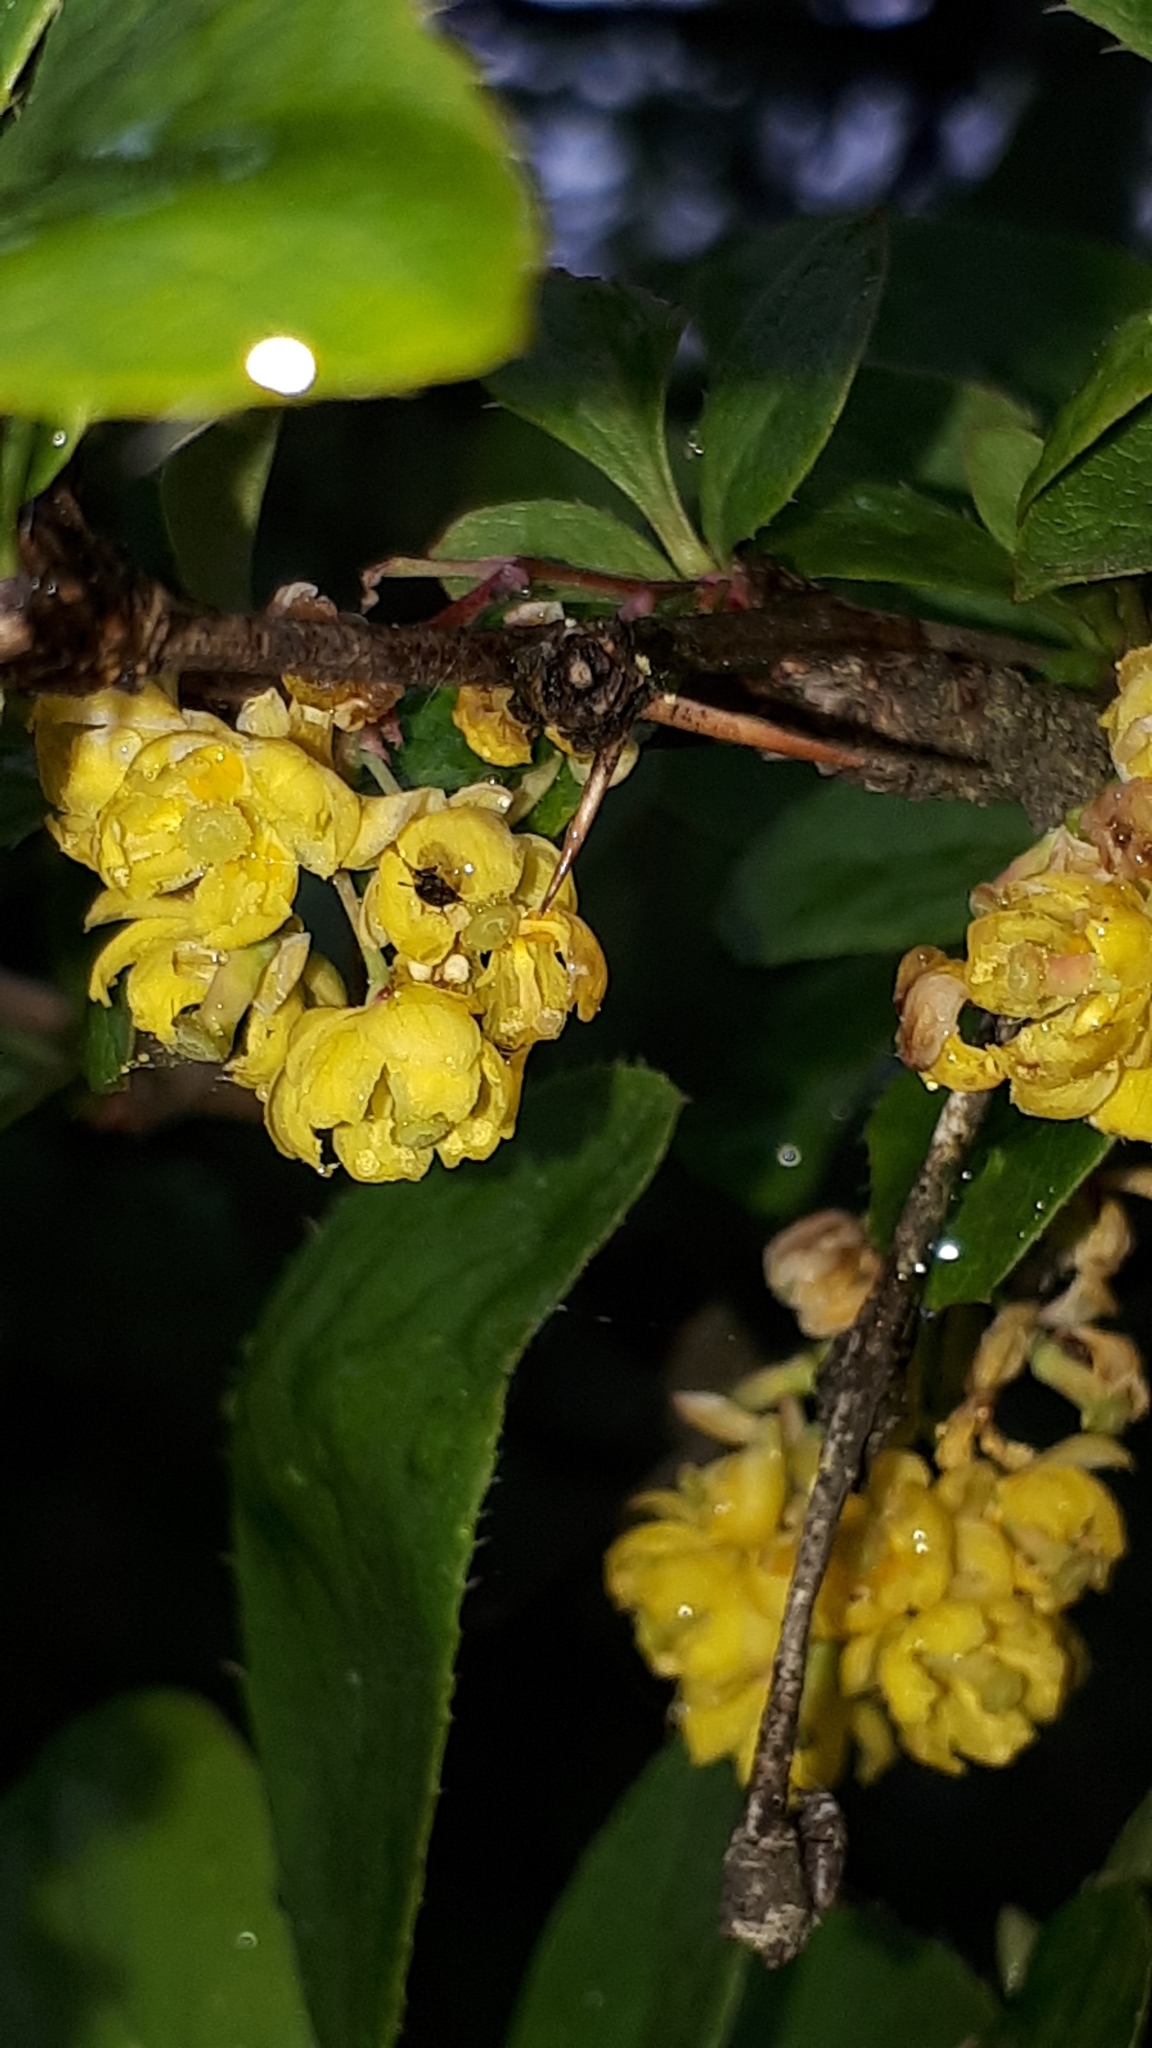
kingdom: Plantae
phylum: Tracheophyta
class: Magnoliopsida
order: Ranunculales
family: Berberidaceae
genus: Berberis
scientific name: Berberis vulgaris
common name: Barberry
